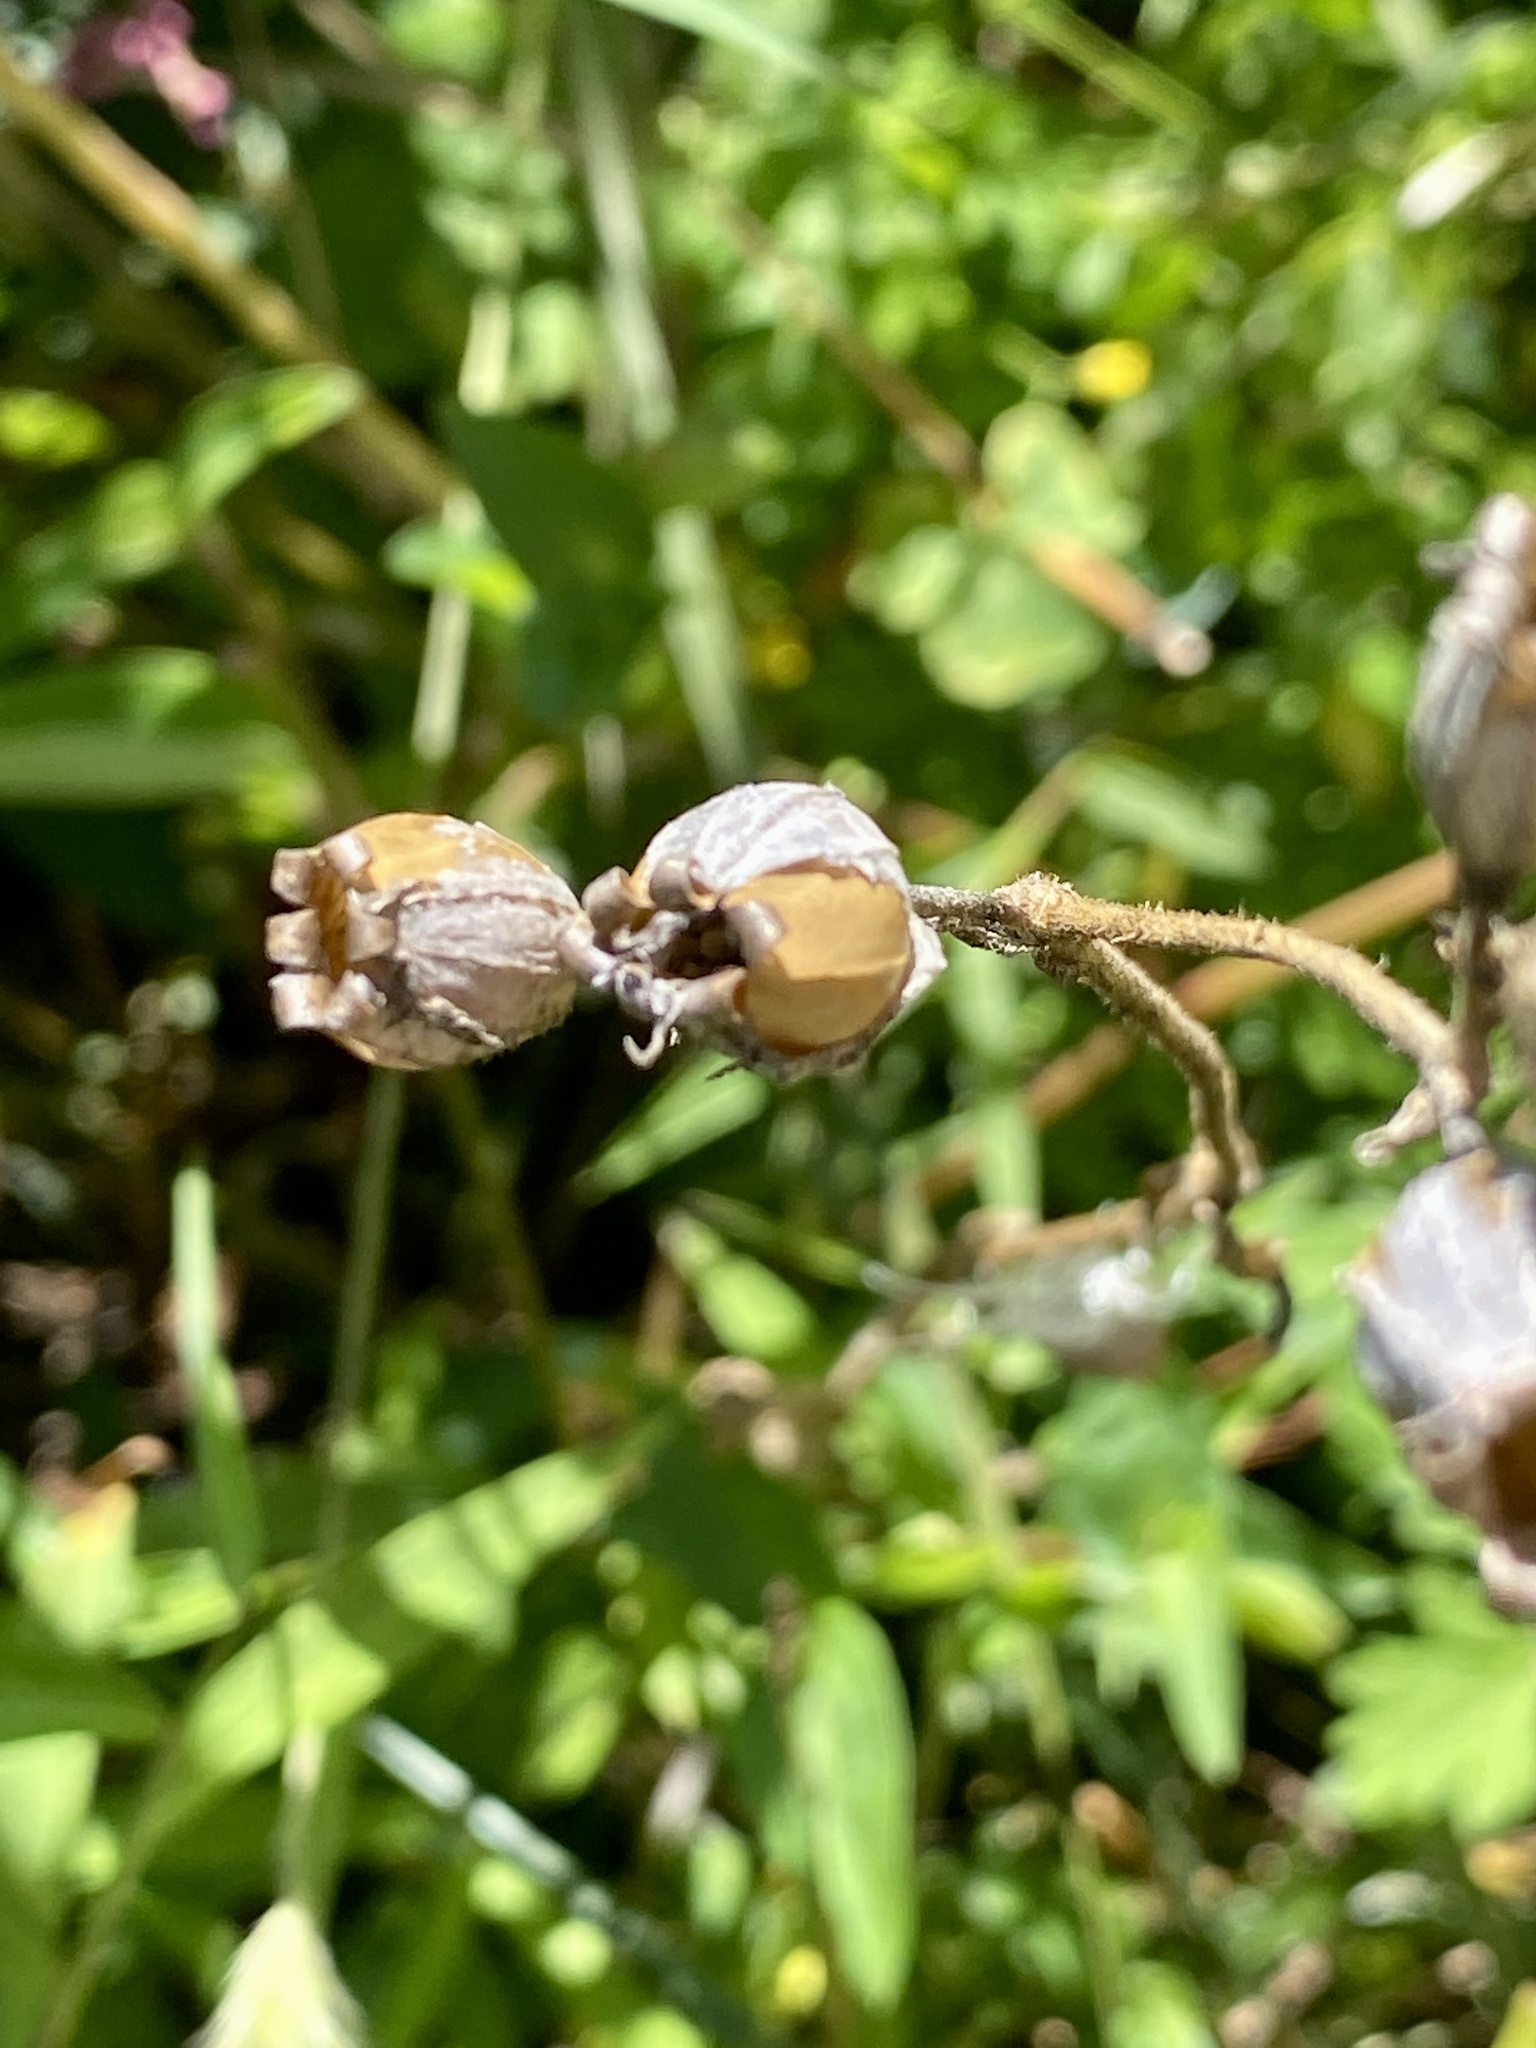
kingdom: Plantae
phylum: Tracheophyta
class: Magnoliopsida
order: Caryophyllales
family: Caryophyllaceae
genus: Silene
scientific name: Silene latifolia
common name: White campion
